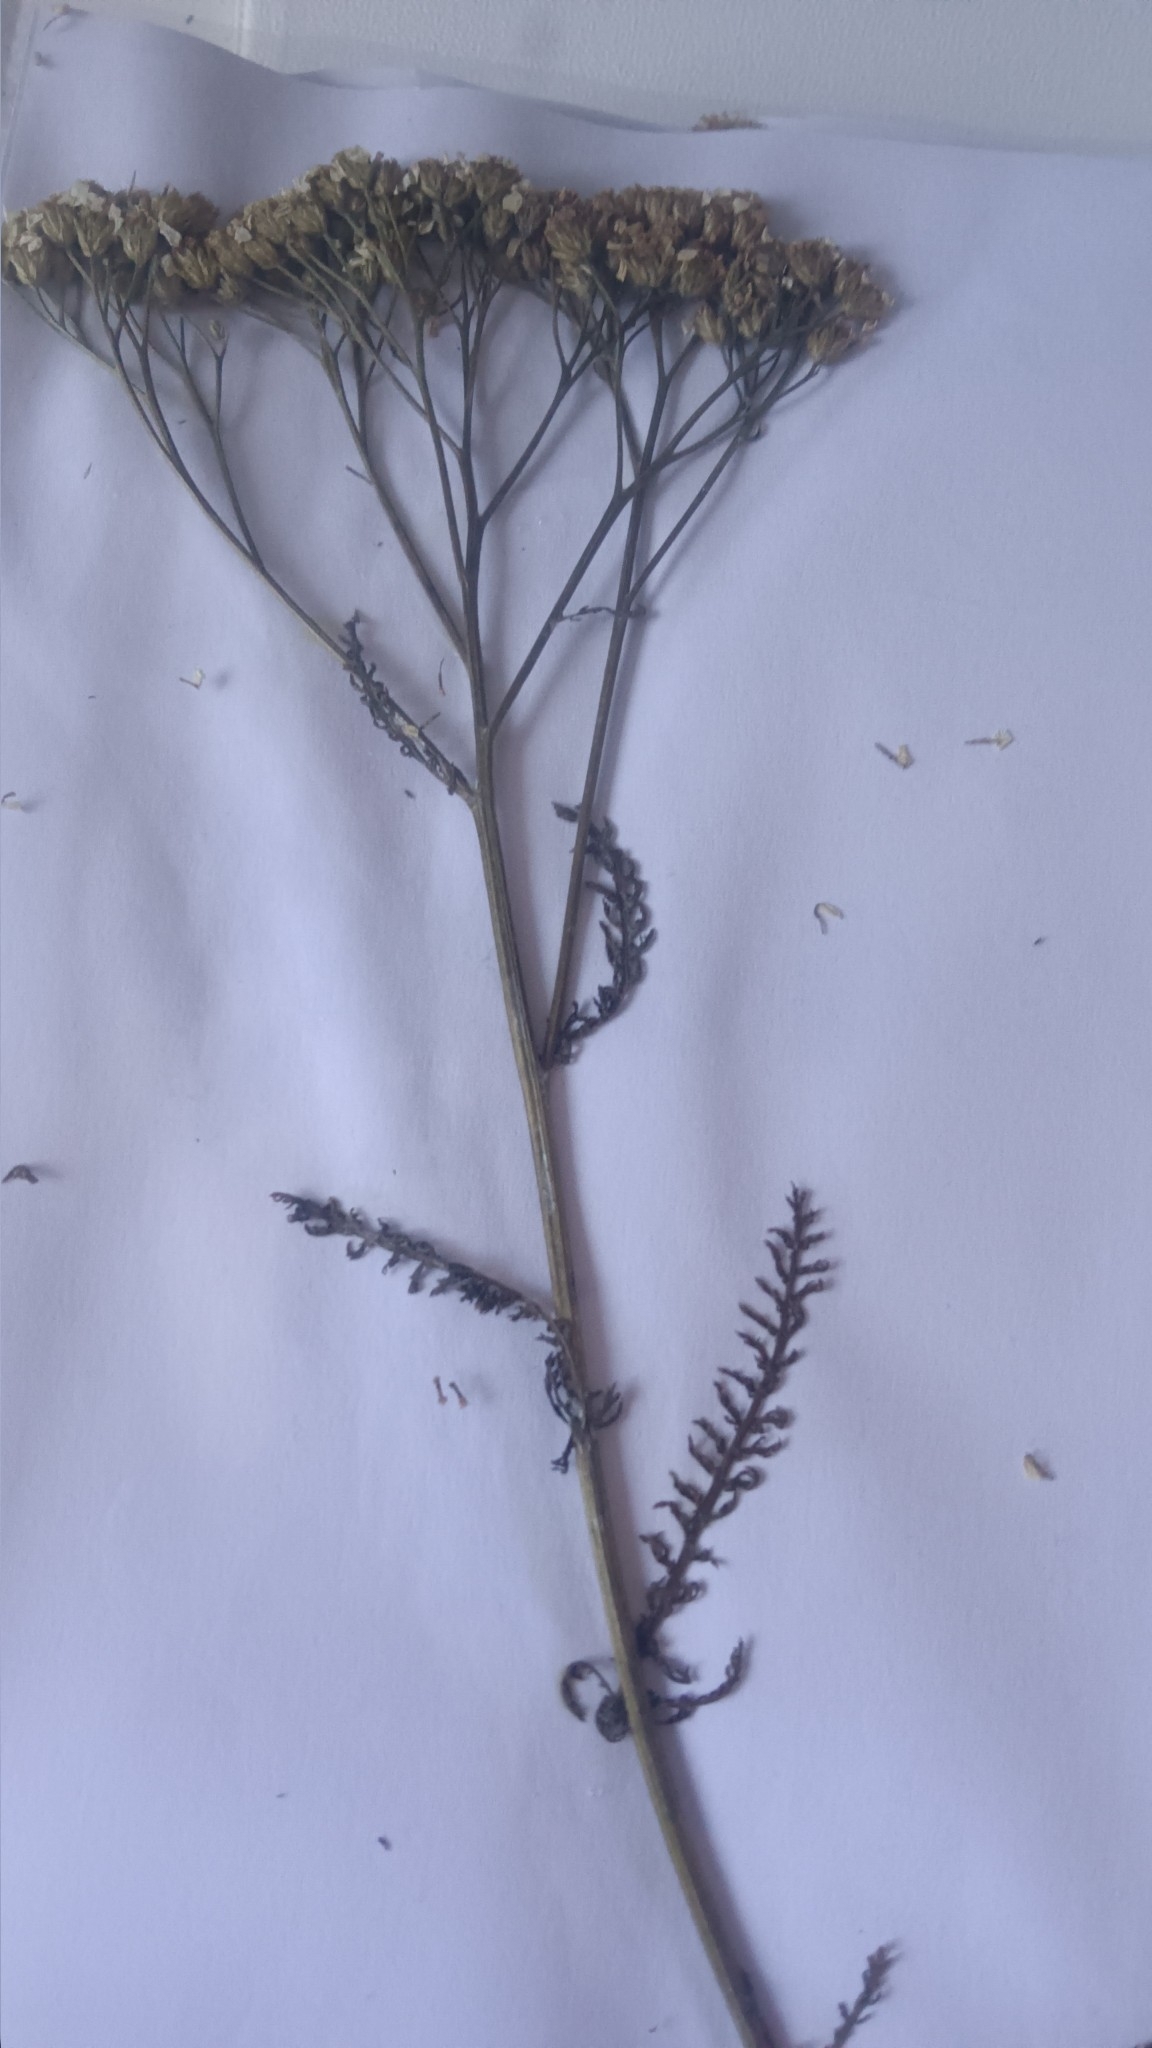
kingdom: Plantae
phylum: Tracheophyta
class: Magnoliopsida
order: Asterales
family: Asteraceae
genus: Achillea
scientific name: Achillea millefolium
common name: Yarrow
